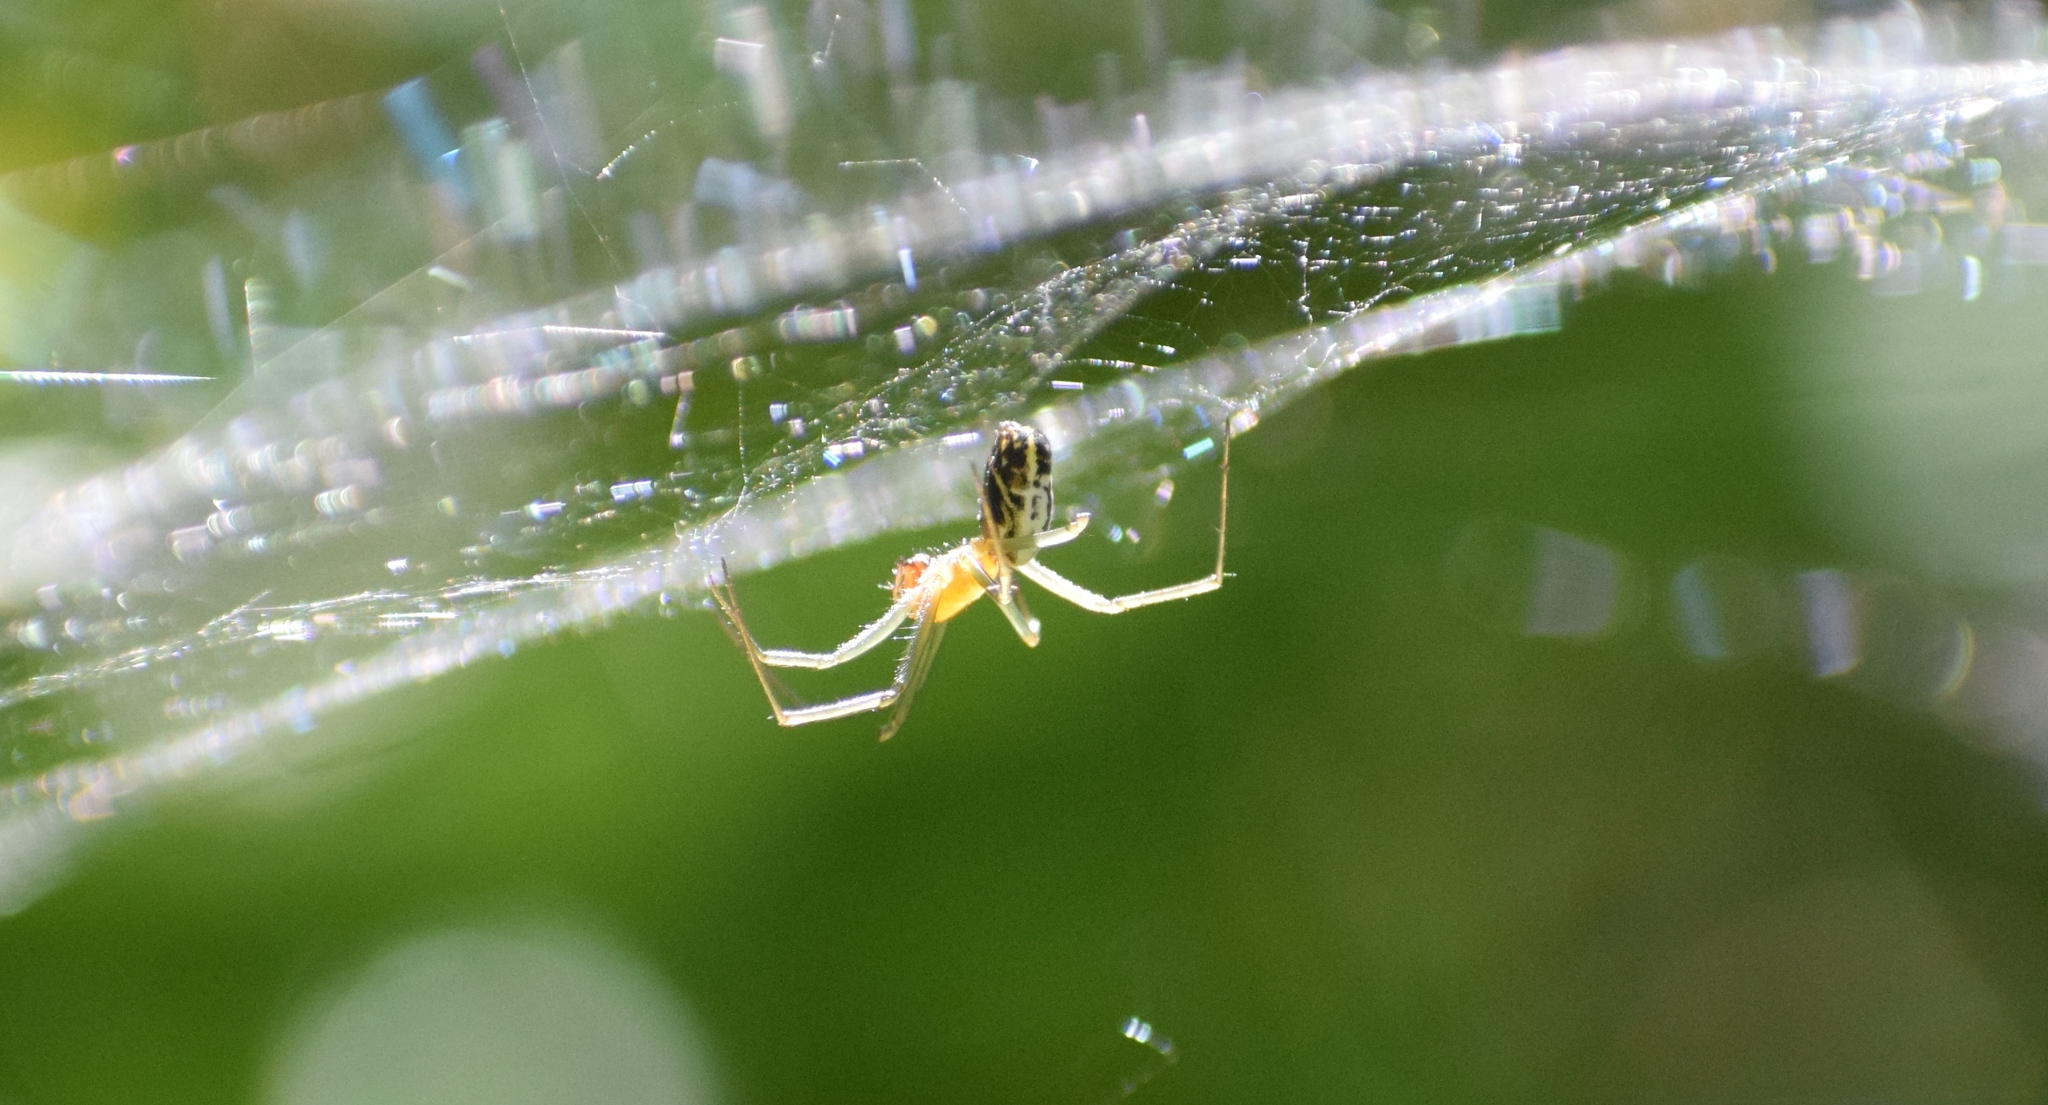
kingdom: Animalia
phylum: Arthropoda
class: Arachnida
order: Araneae
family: Linyphiidae
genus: Neriene
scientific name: Neriene emphana
